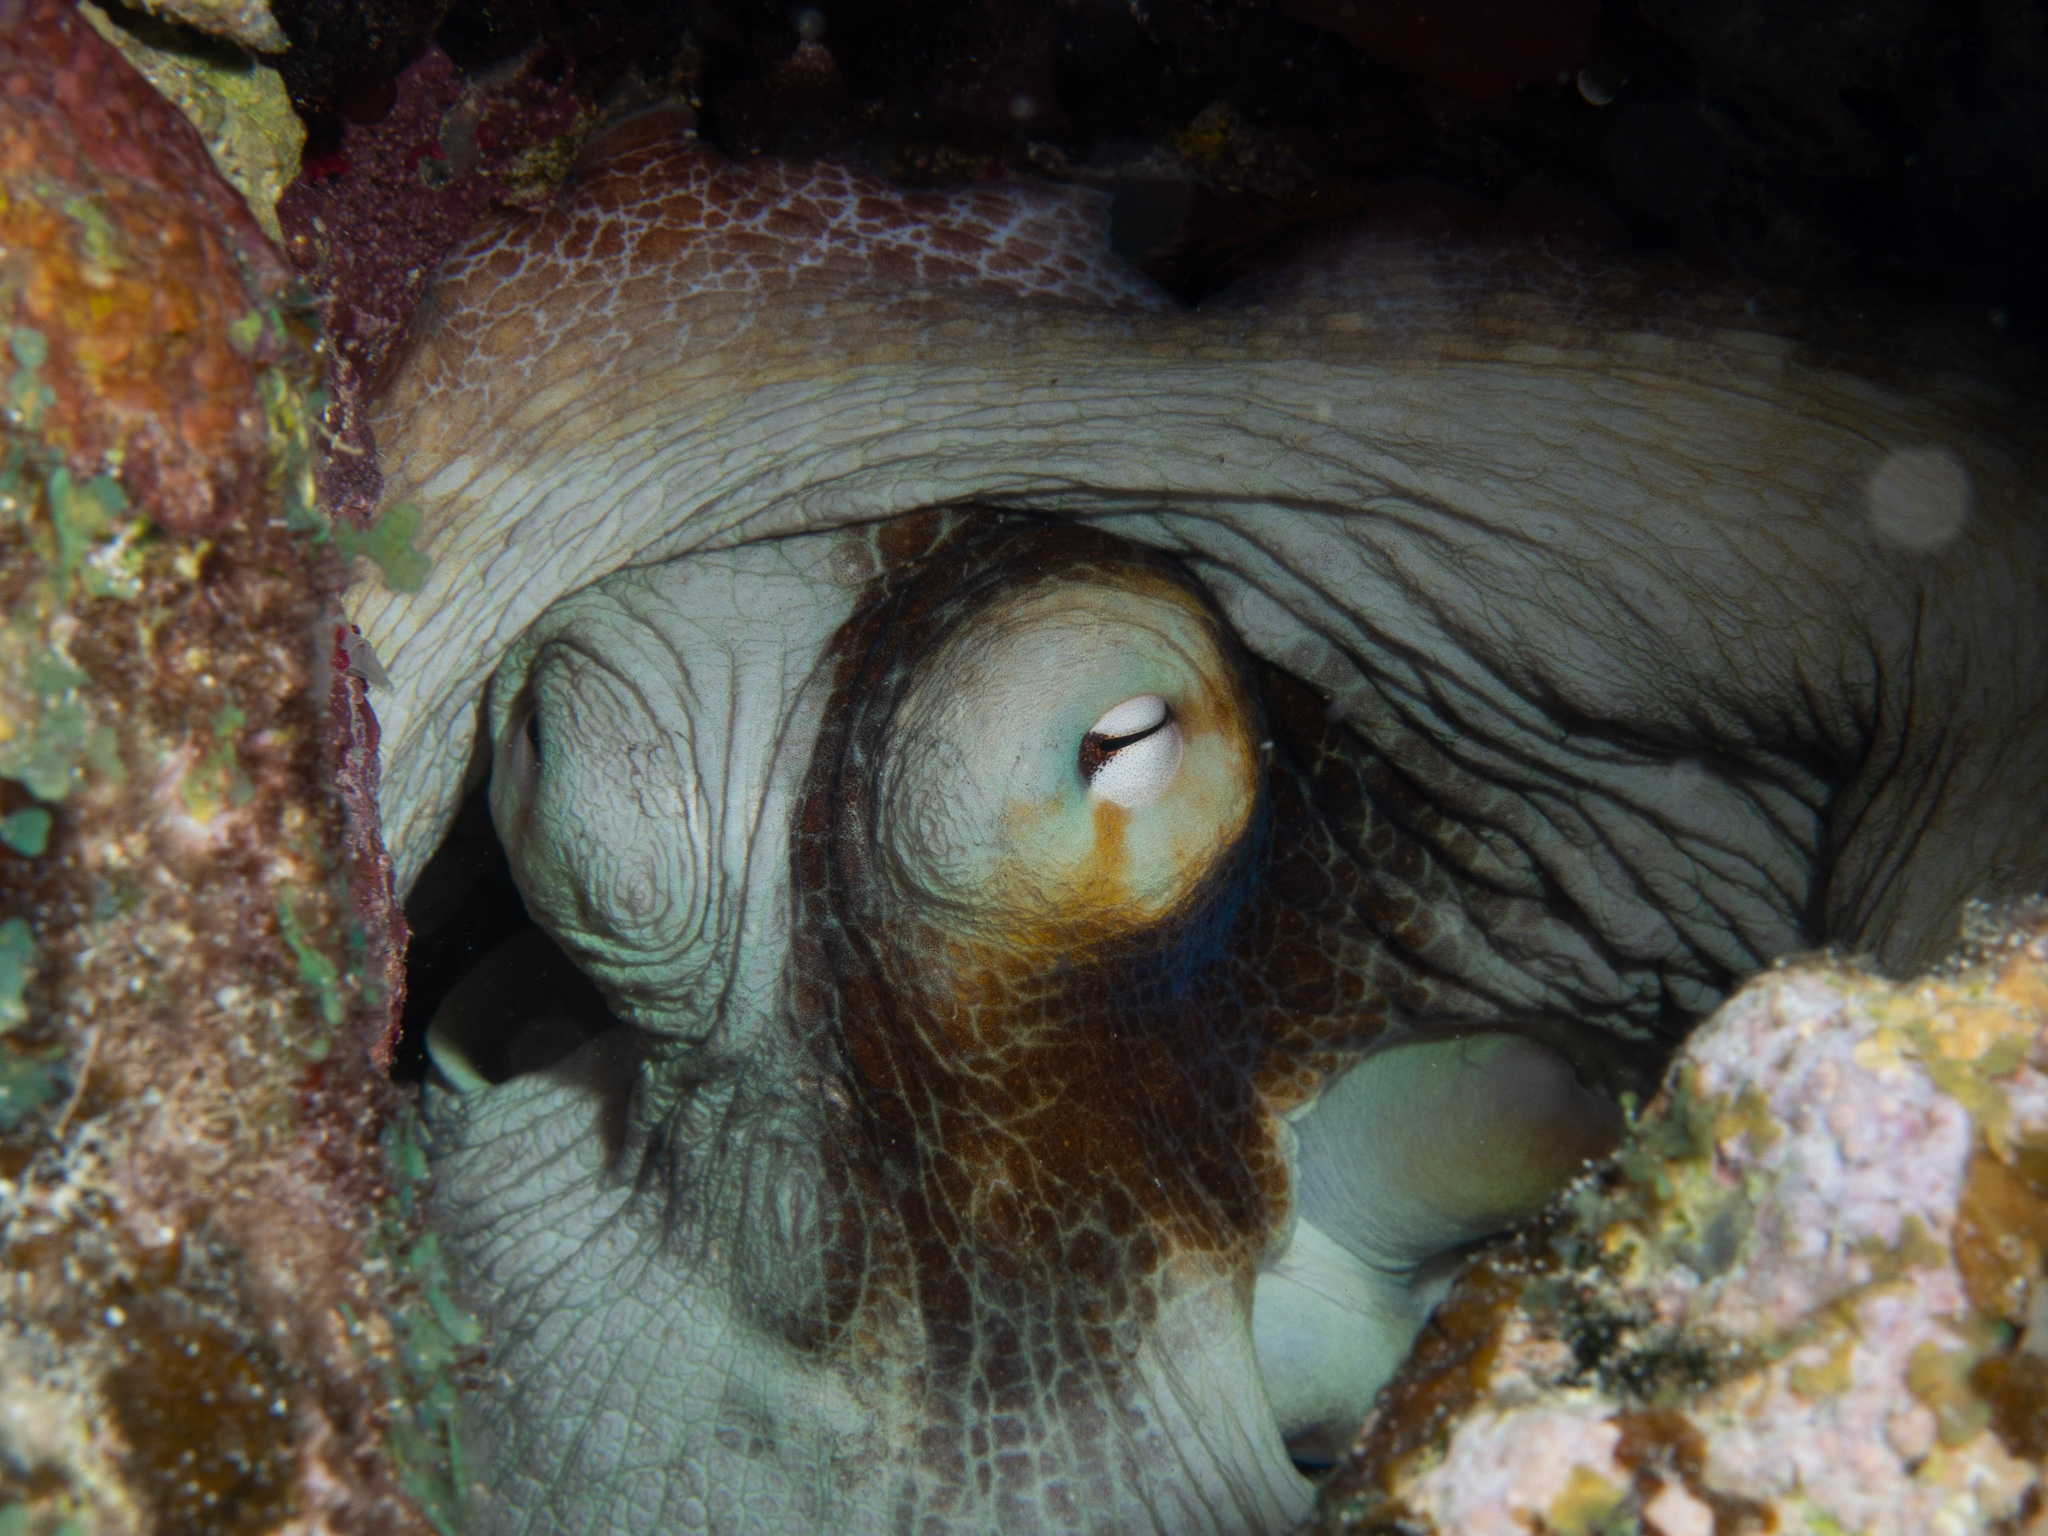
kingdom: Animalia
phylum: Mollusca
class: Cephalopoda
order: Octopoda
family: Octopodidae
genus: Octopus
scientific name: Octopus insularis
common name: Brazil reef octopus
